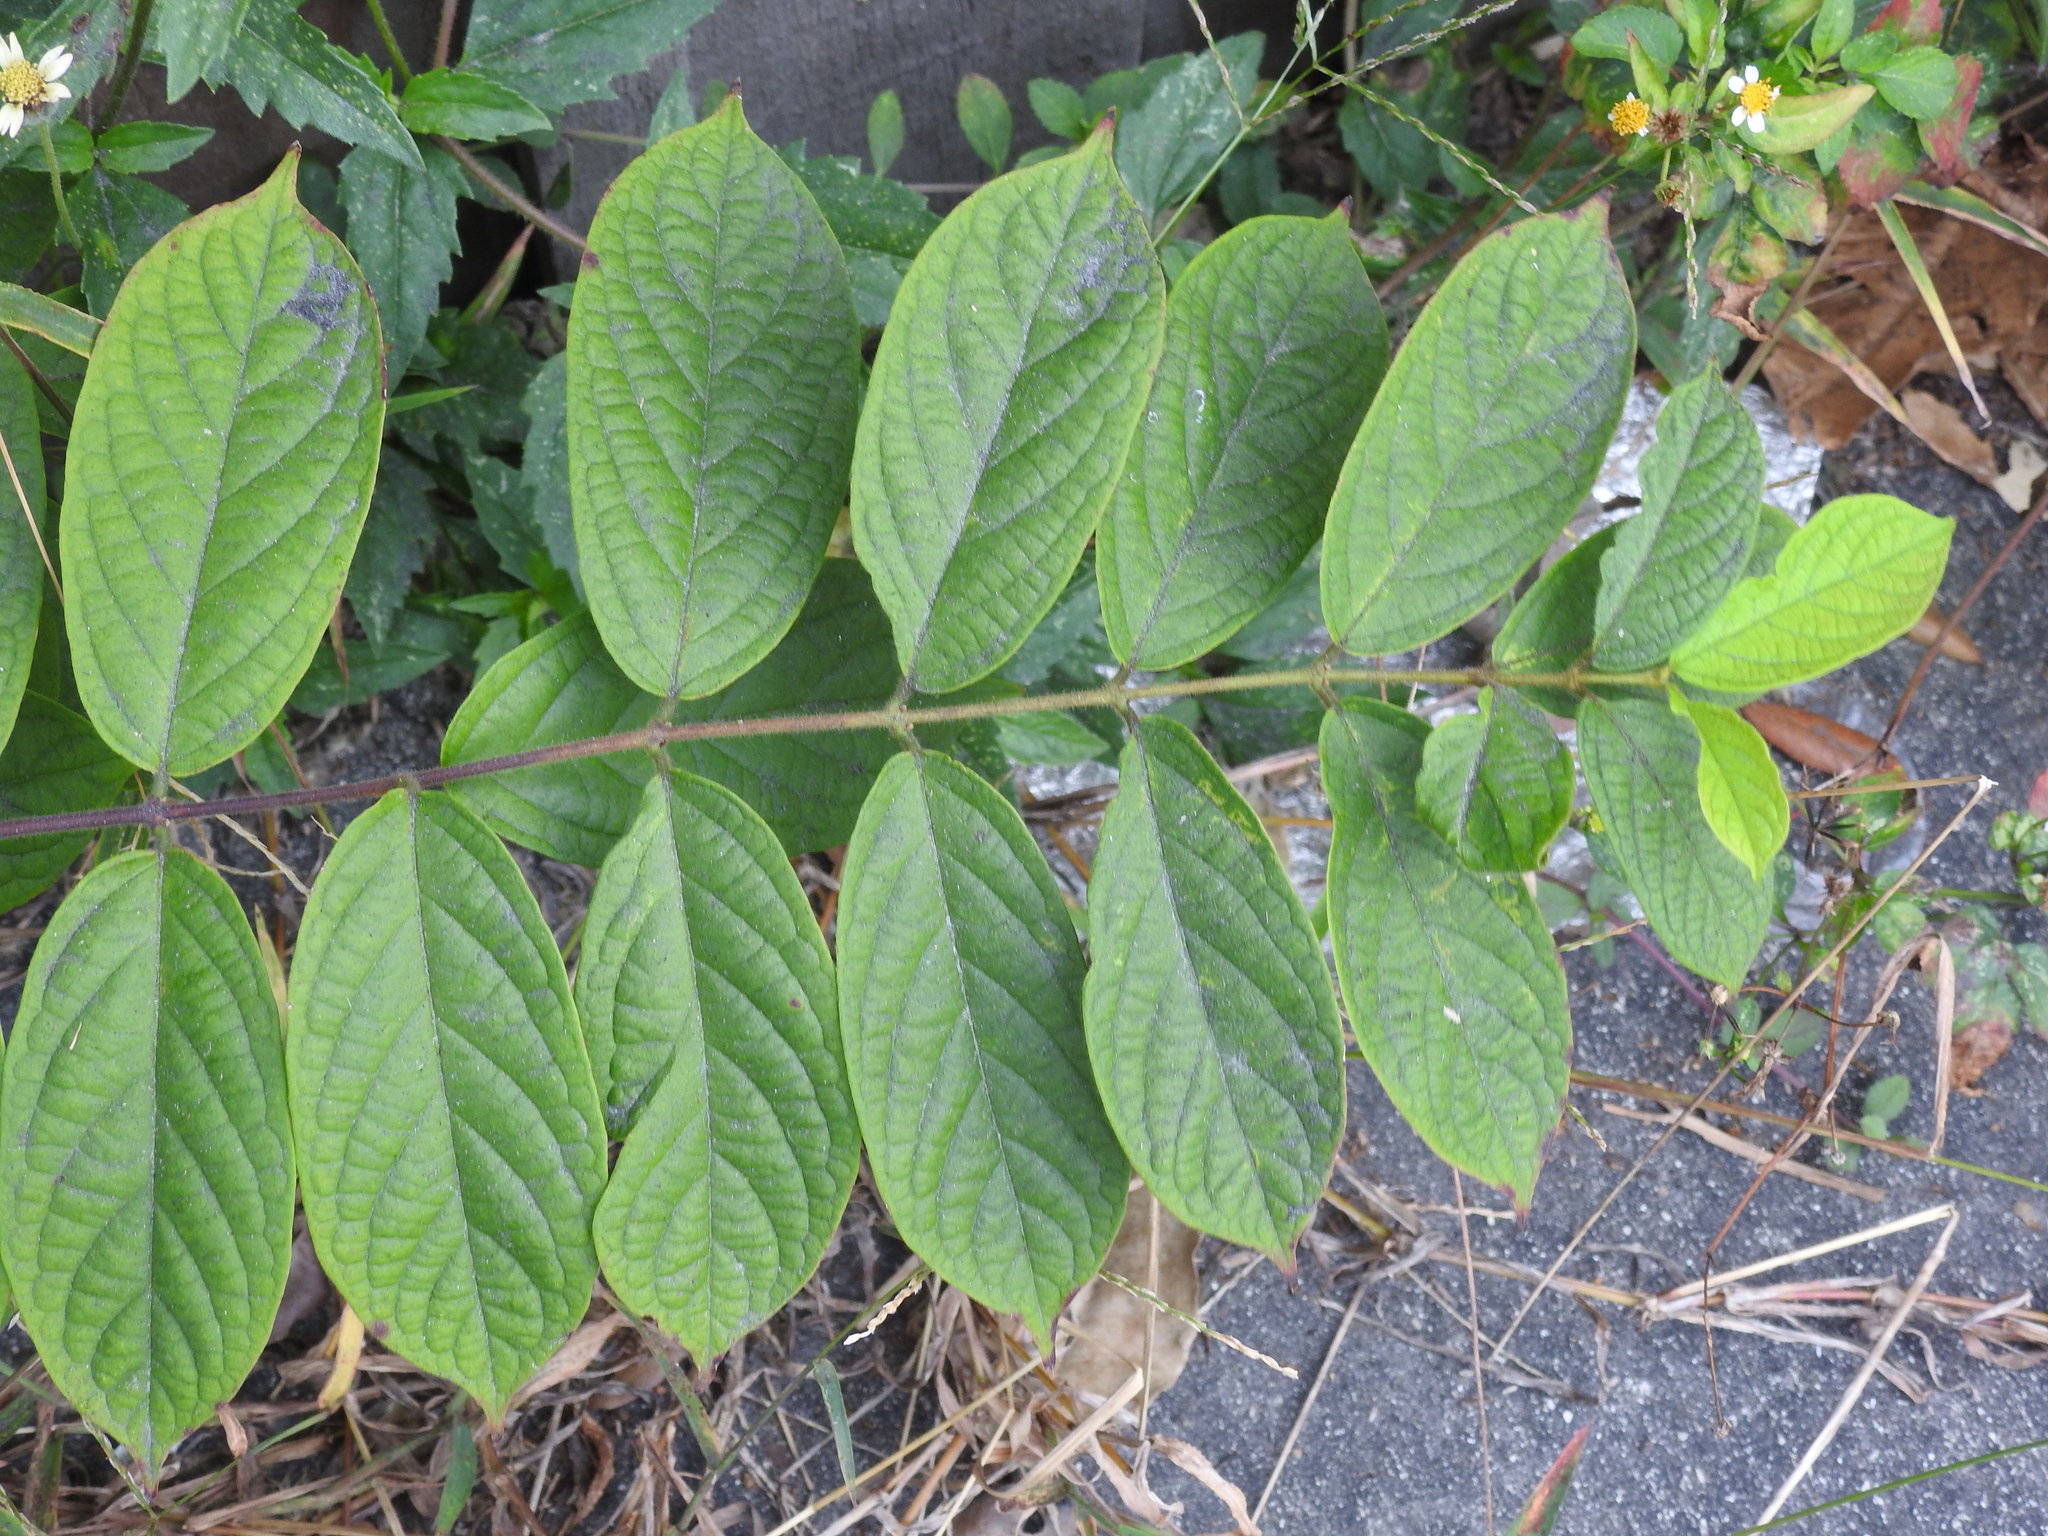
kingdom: Plantae
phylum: Tracheophyta
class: Magnoliopsida
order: Myrtales
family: Combretaceae
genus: Combretum
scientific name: Combretum indicum
